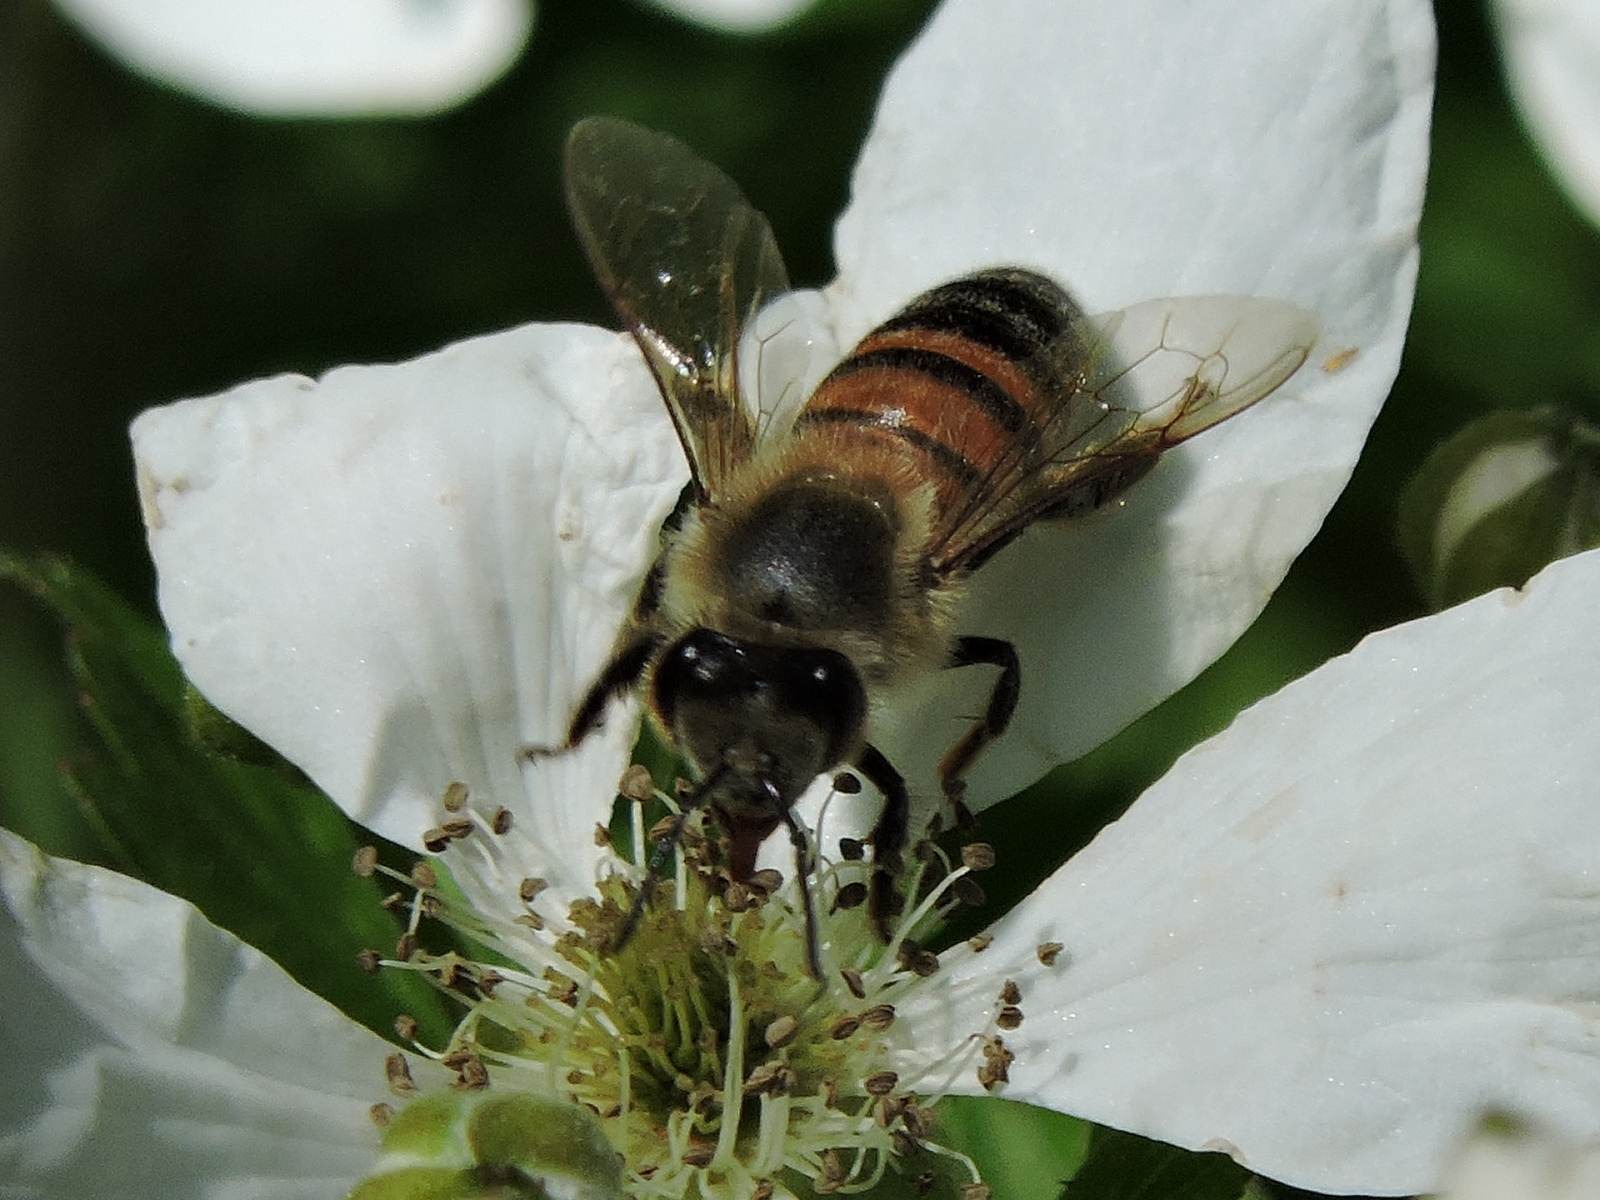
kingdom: Animalia
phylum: Arthropoda
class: Insecta
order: Hymenoptera
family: Apidae
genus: Apis
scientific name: Apis mellifera
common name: Honey bee
